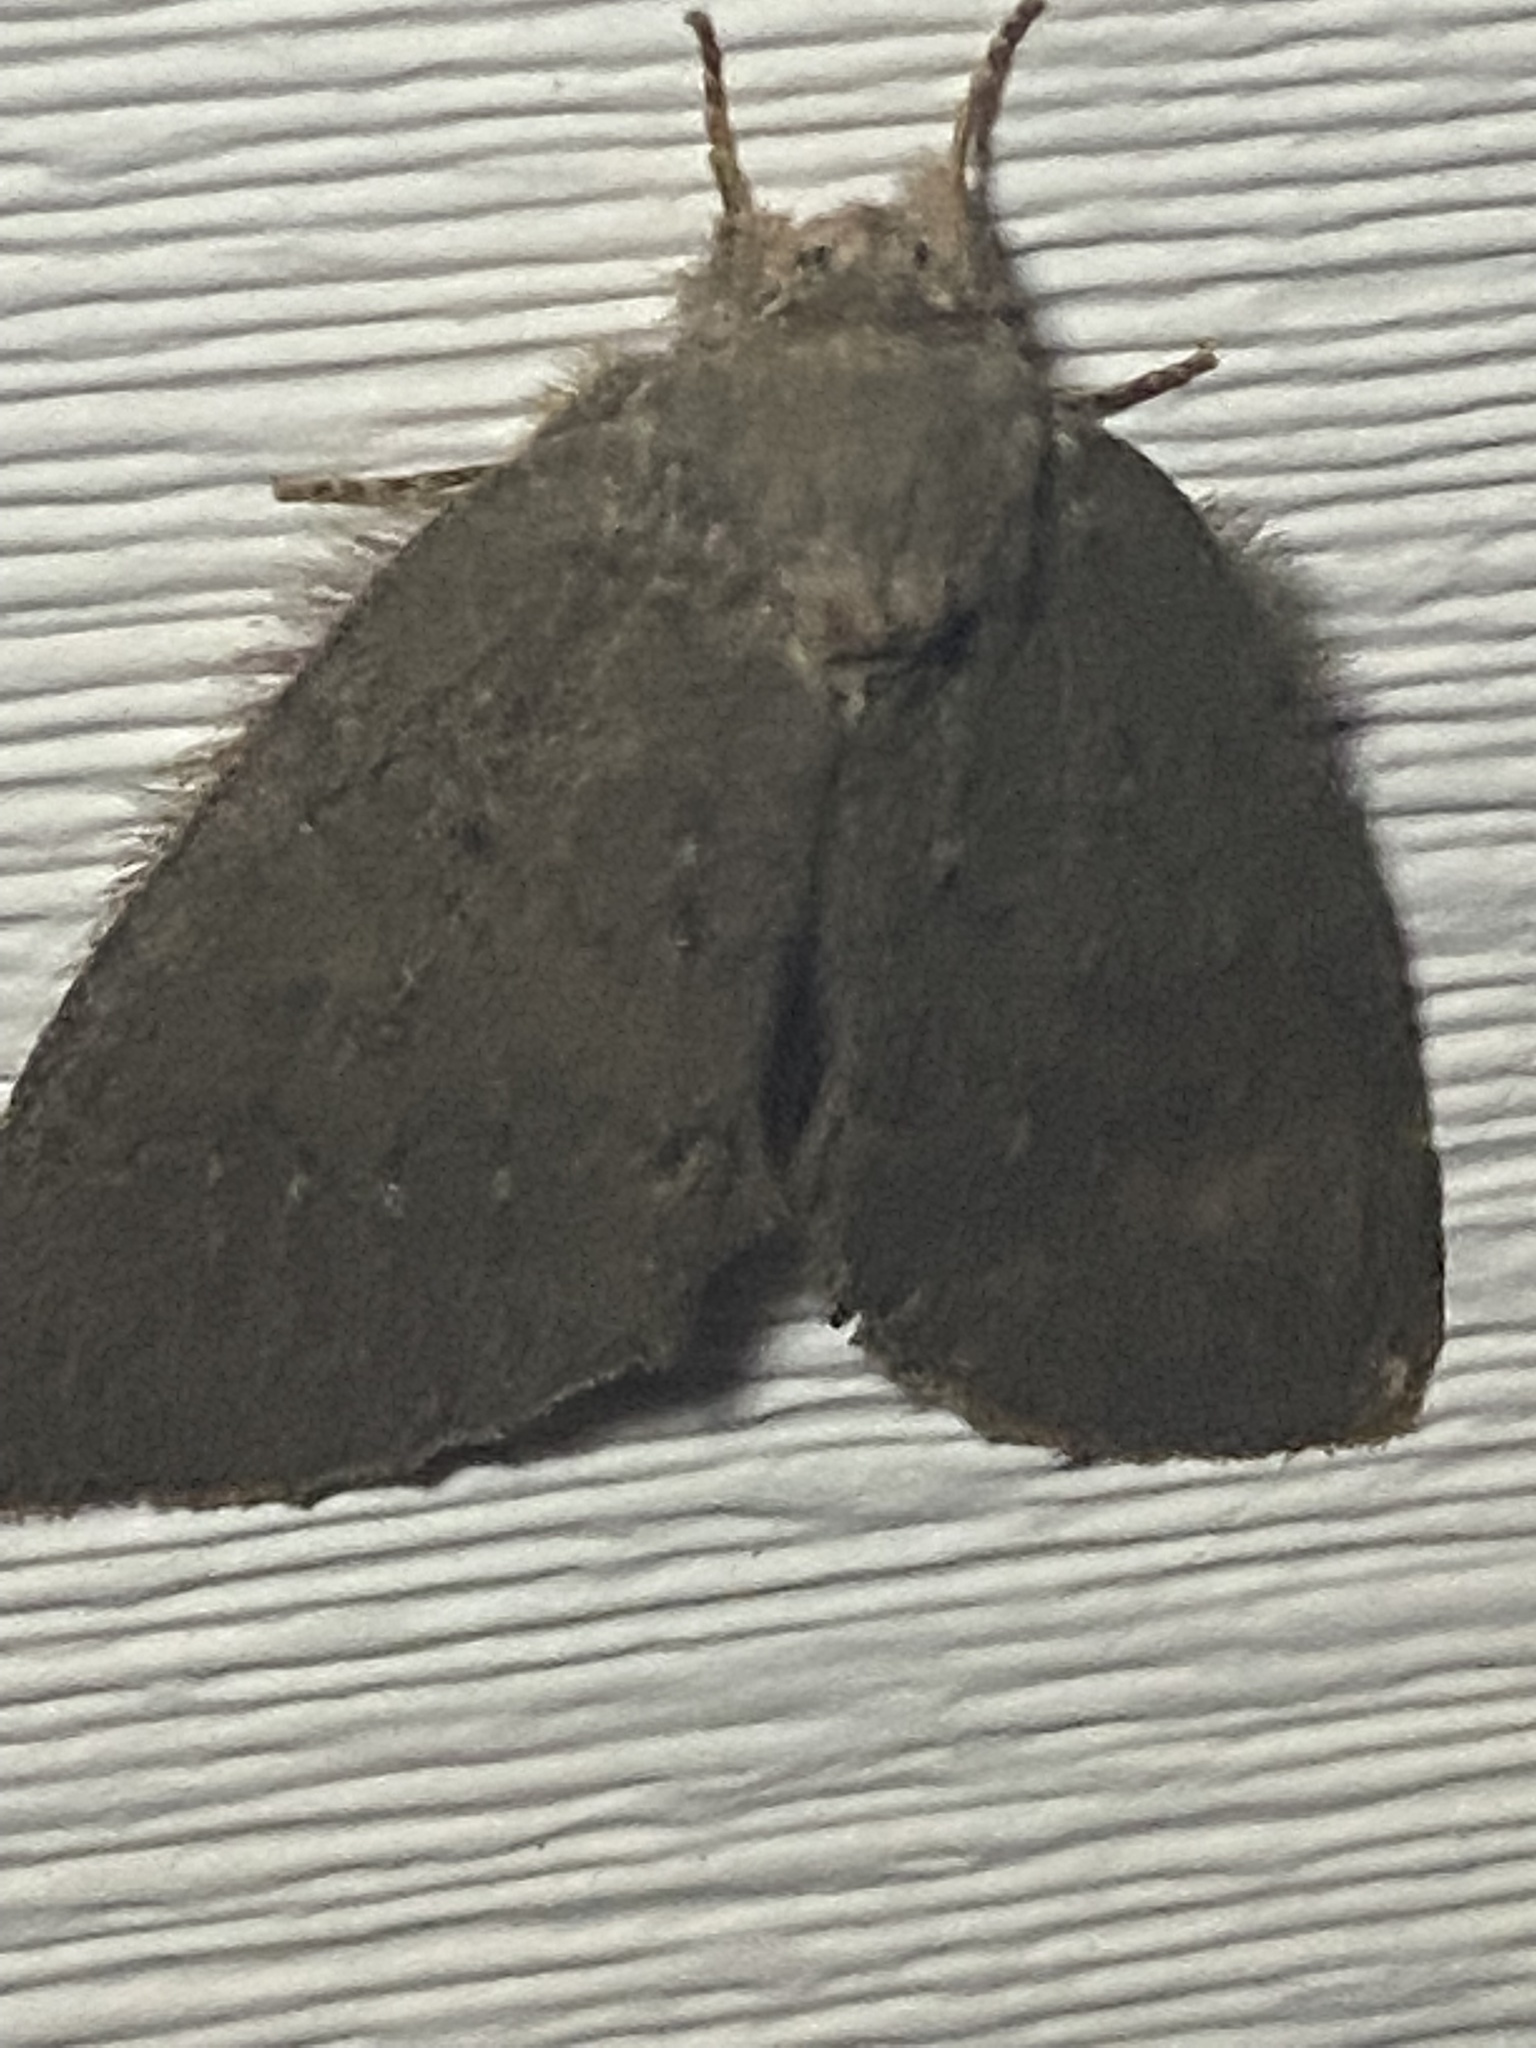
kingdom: Animalia
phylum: Arthropoda
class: Insecta
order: Lepidoptera
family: Notodontidae
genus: Misogada
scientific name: Misogada unicolor
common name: Drab prominent
